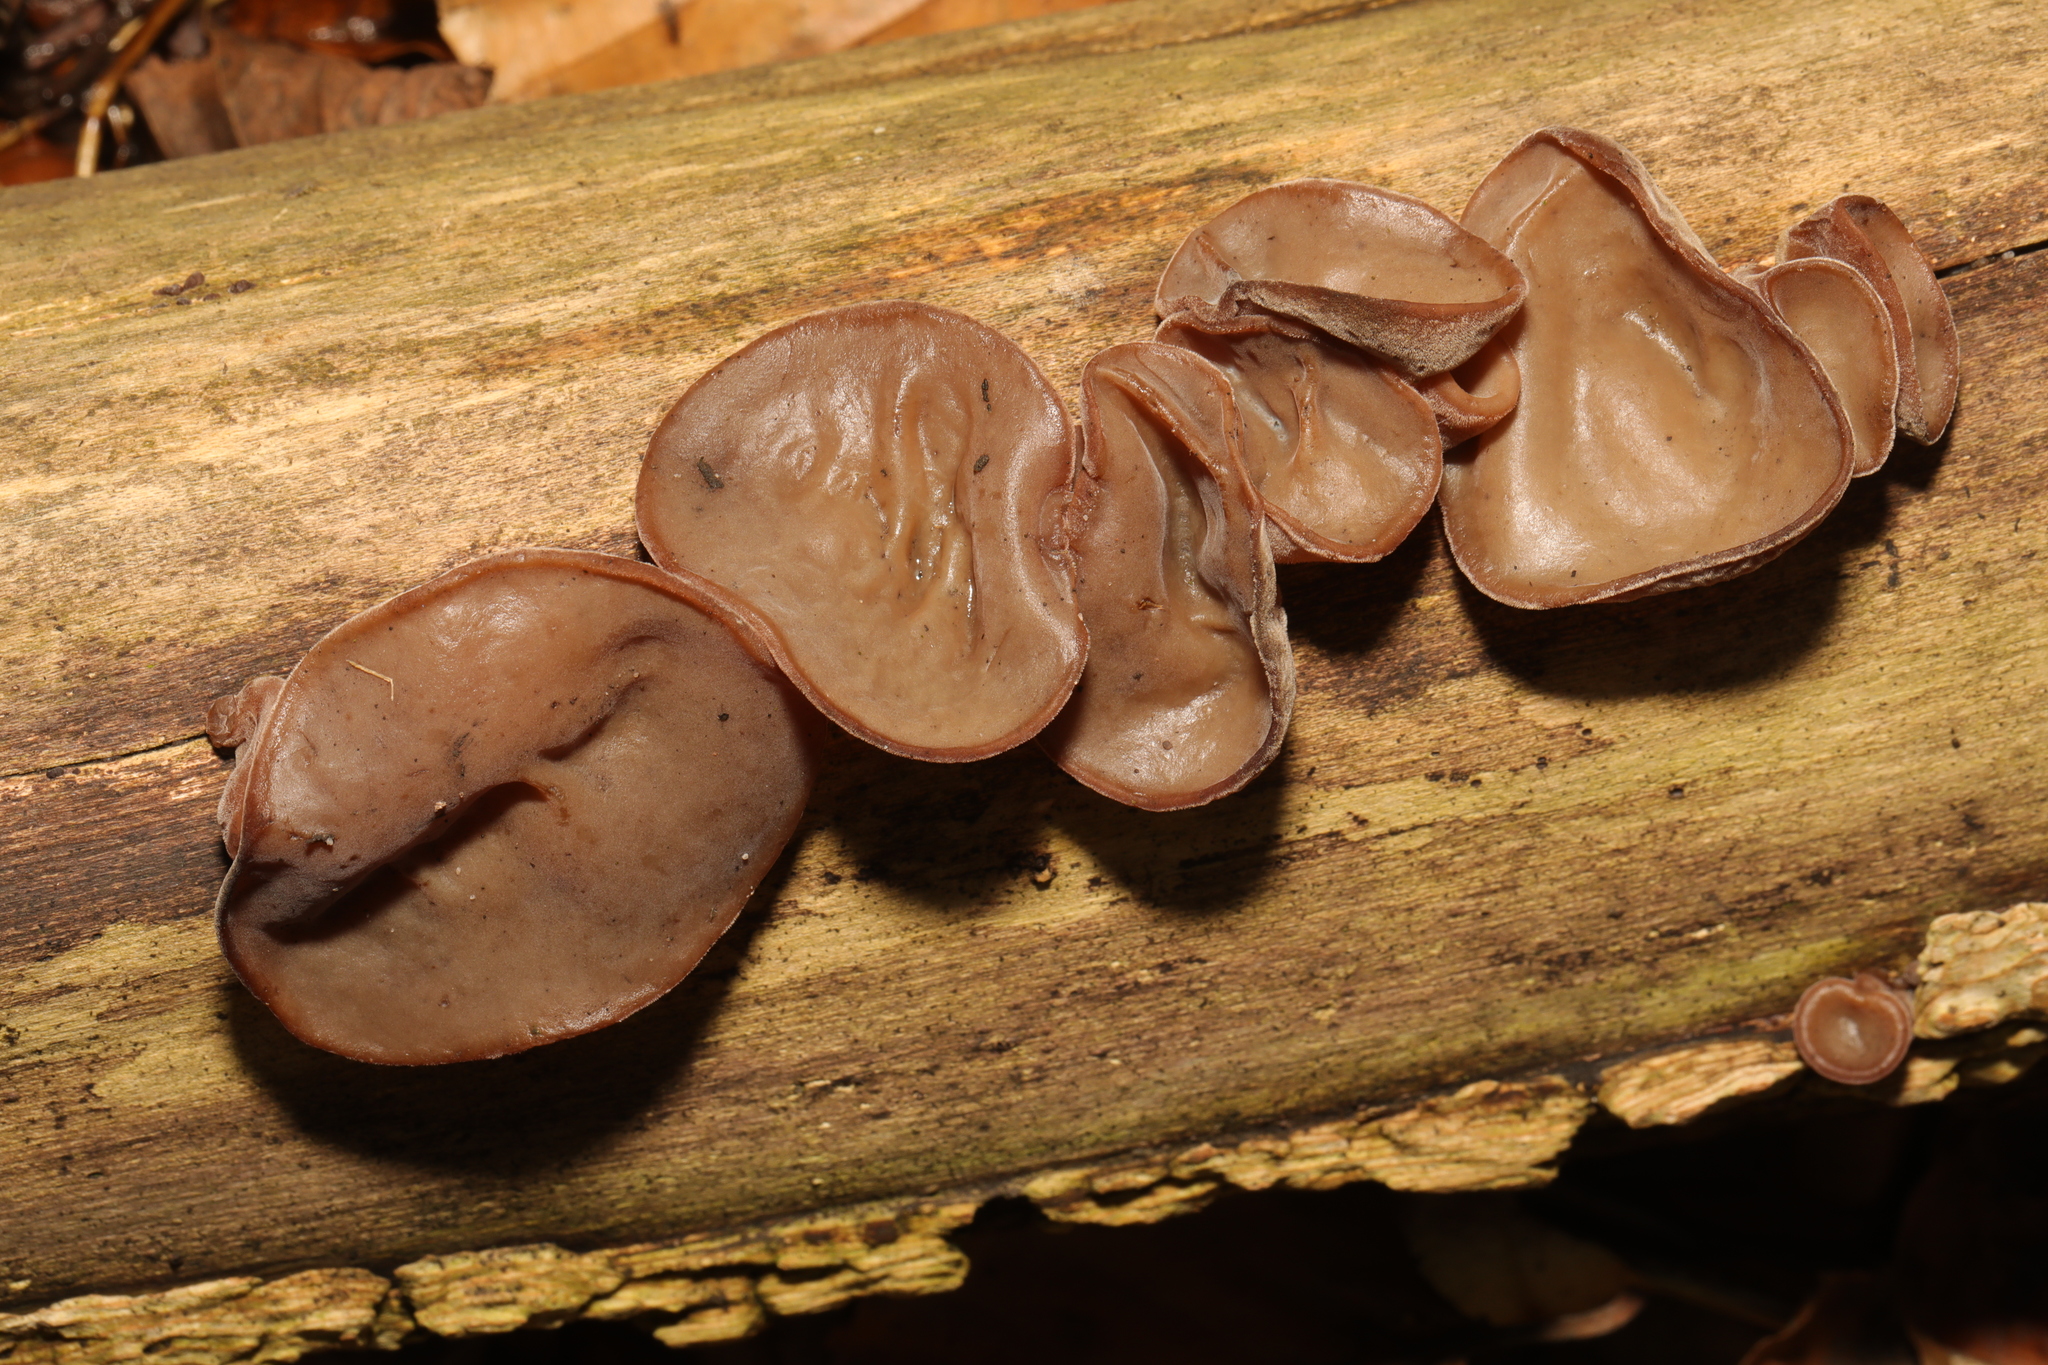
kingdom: Fungi
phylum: Basidiomycota
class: Agaricomycetes
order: Auriculariales
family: Auriculariaceae
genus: Auricularia
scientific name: Auricularia auricula-judae
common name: Jelly ear
